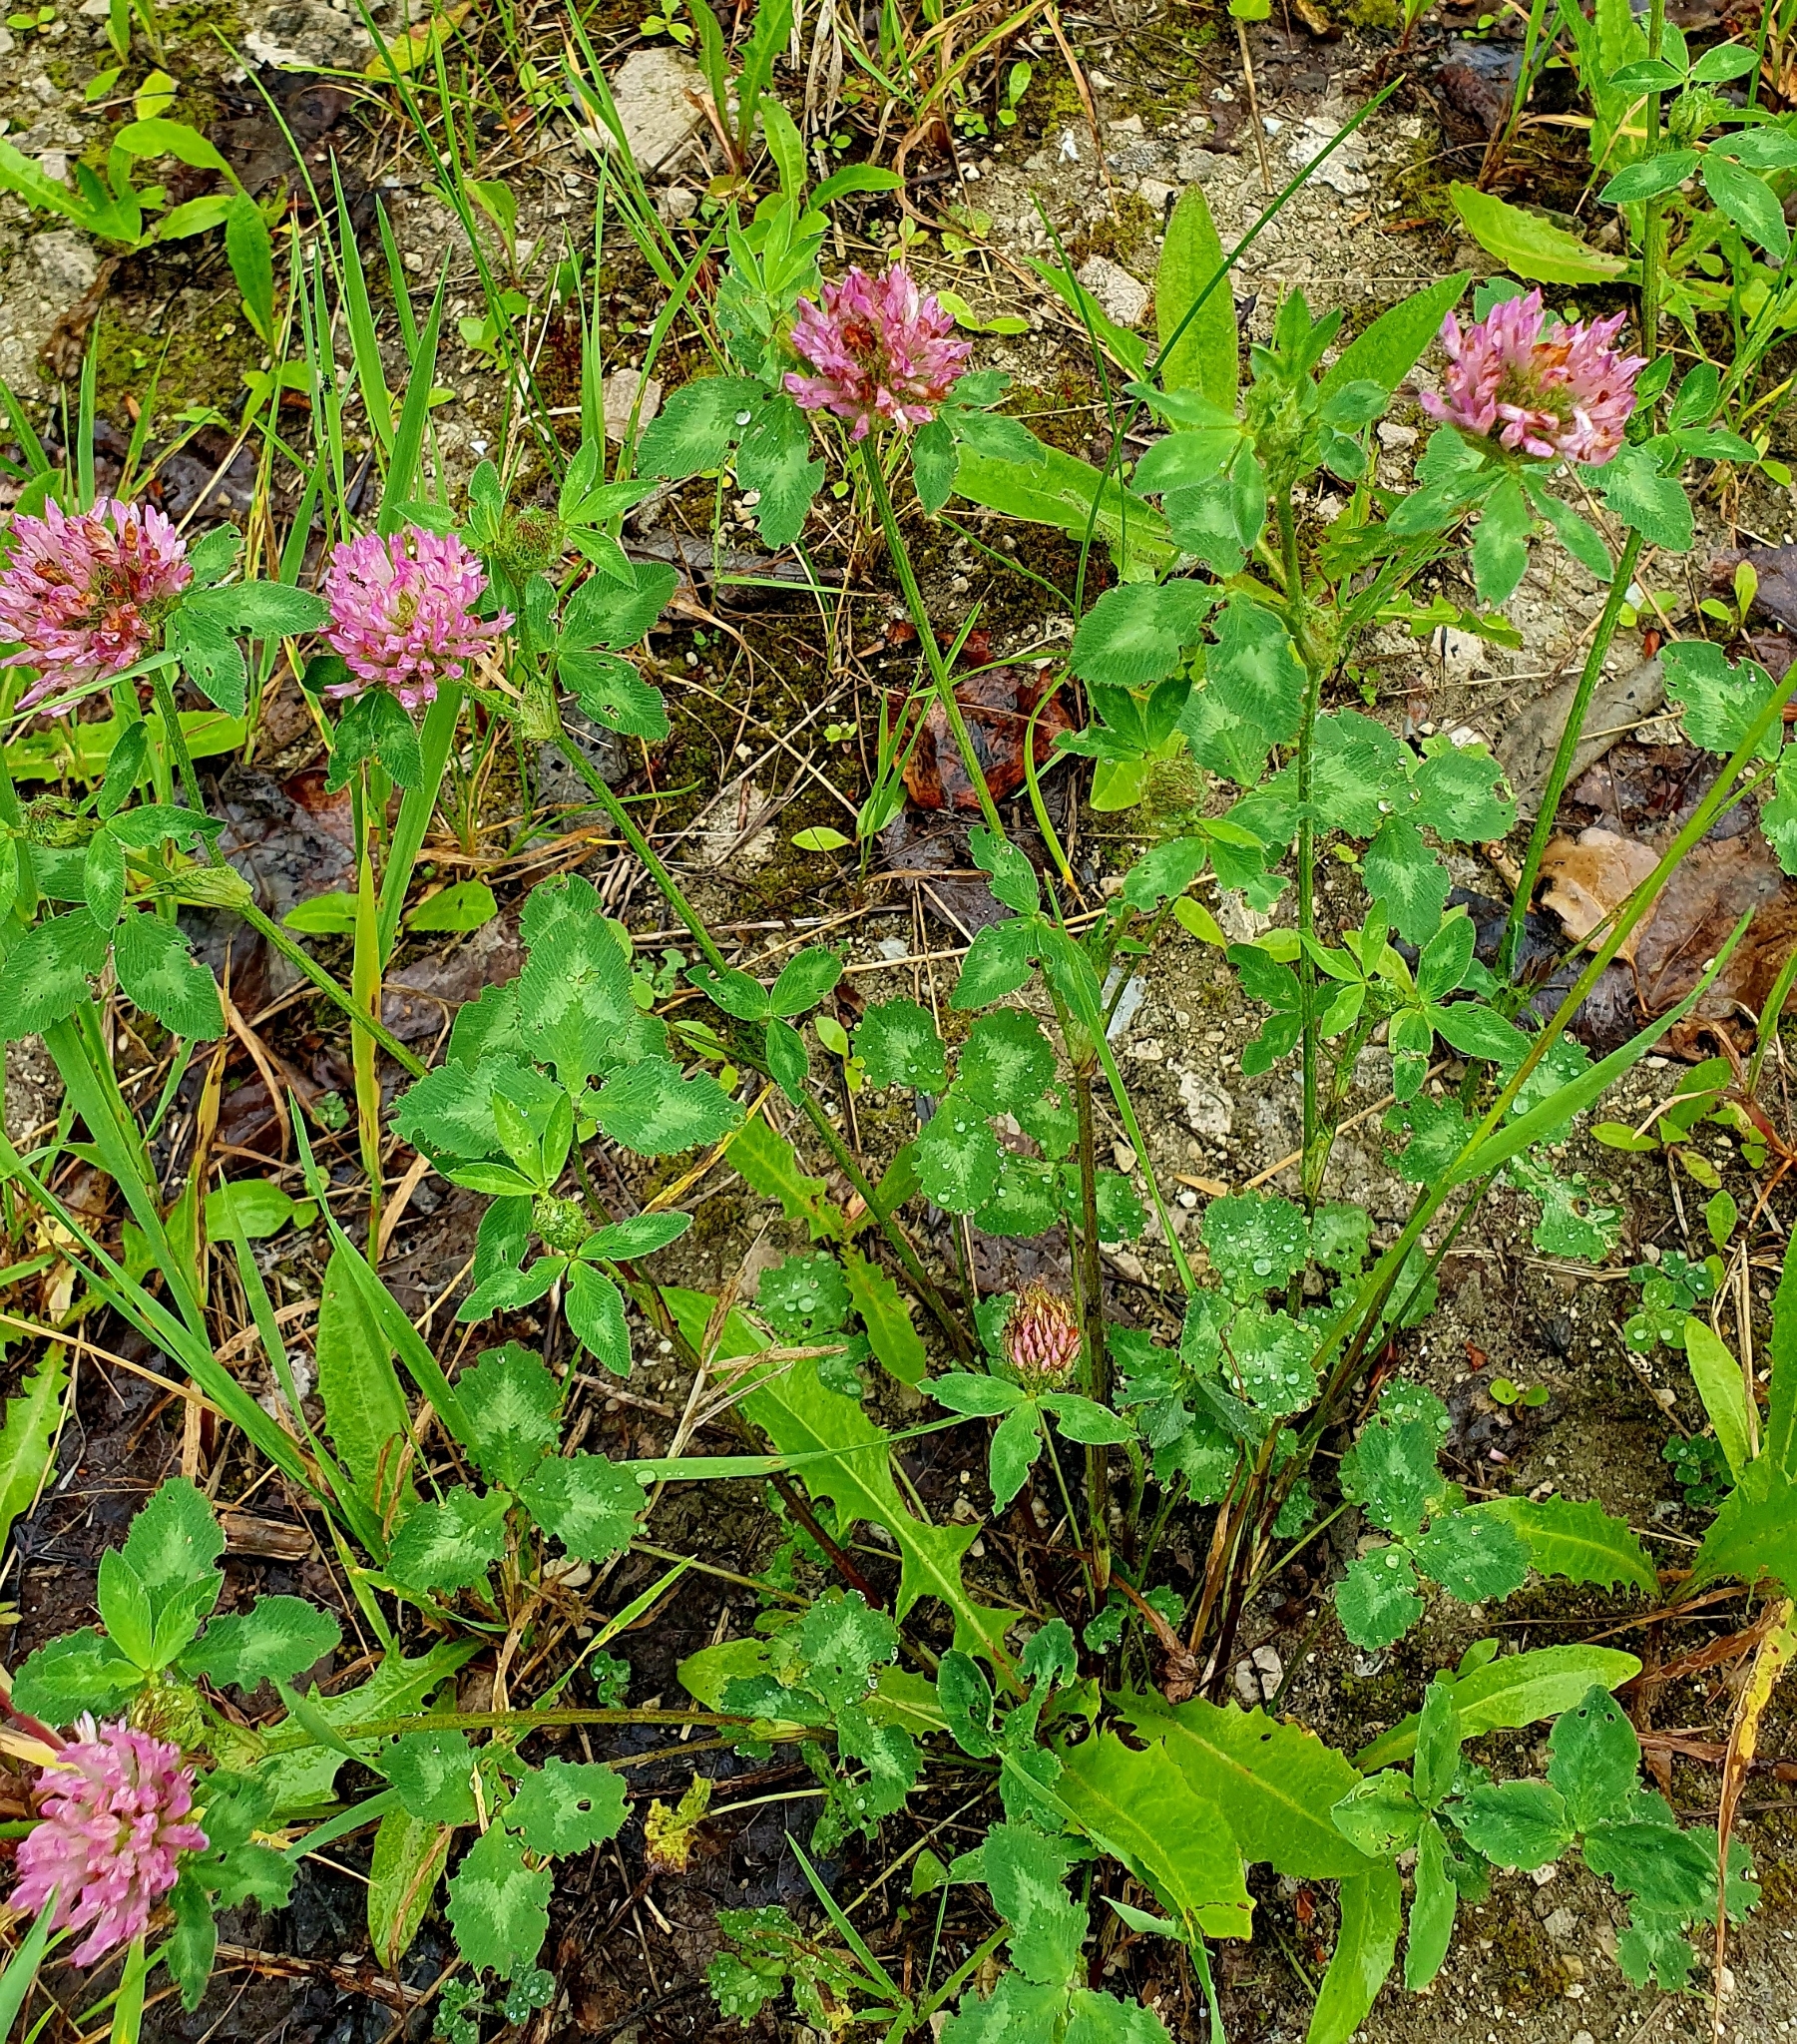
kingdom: Plantae
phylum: Tracheophyta
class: Magnoliopsida
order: Fabales
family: Fabaceae
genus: Trifolium
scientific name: Trifolium pratense
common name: Red clover
